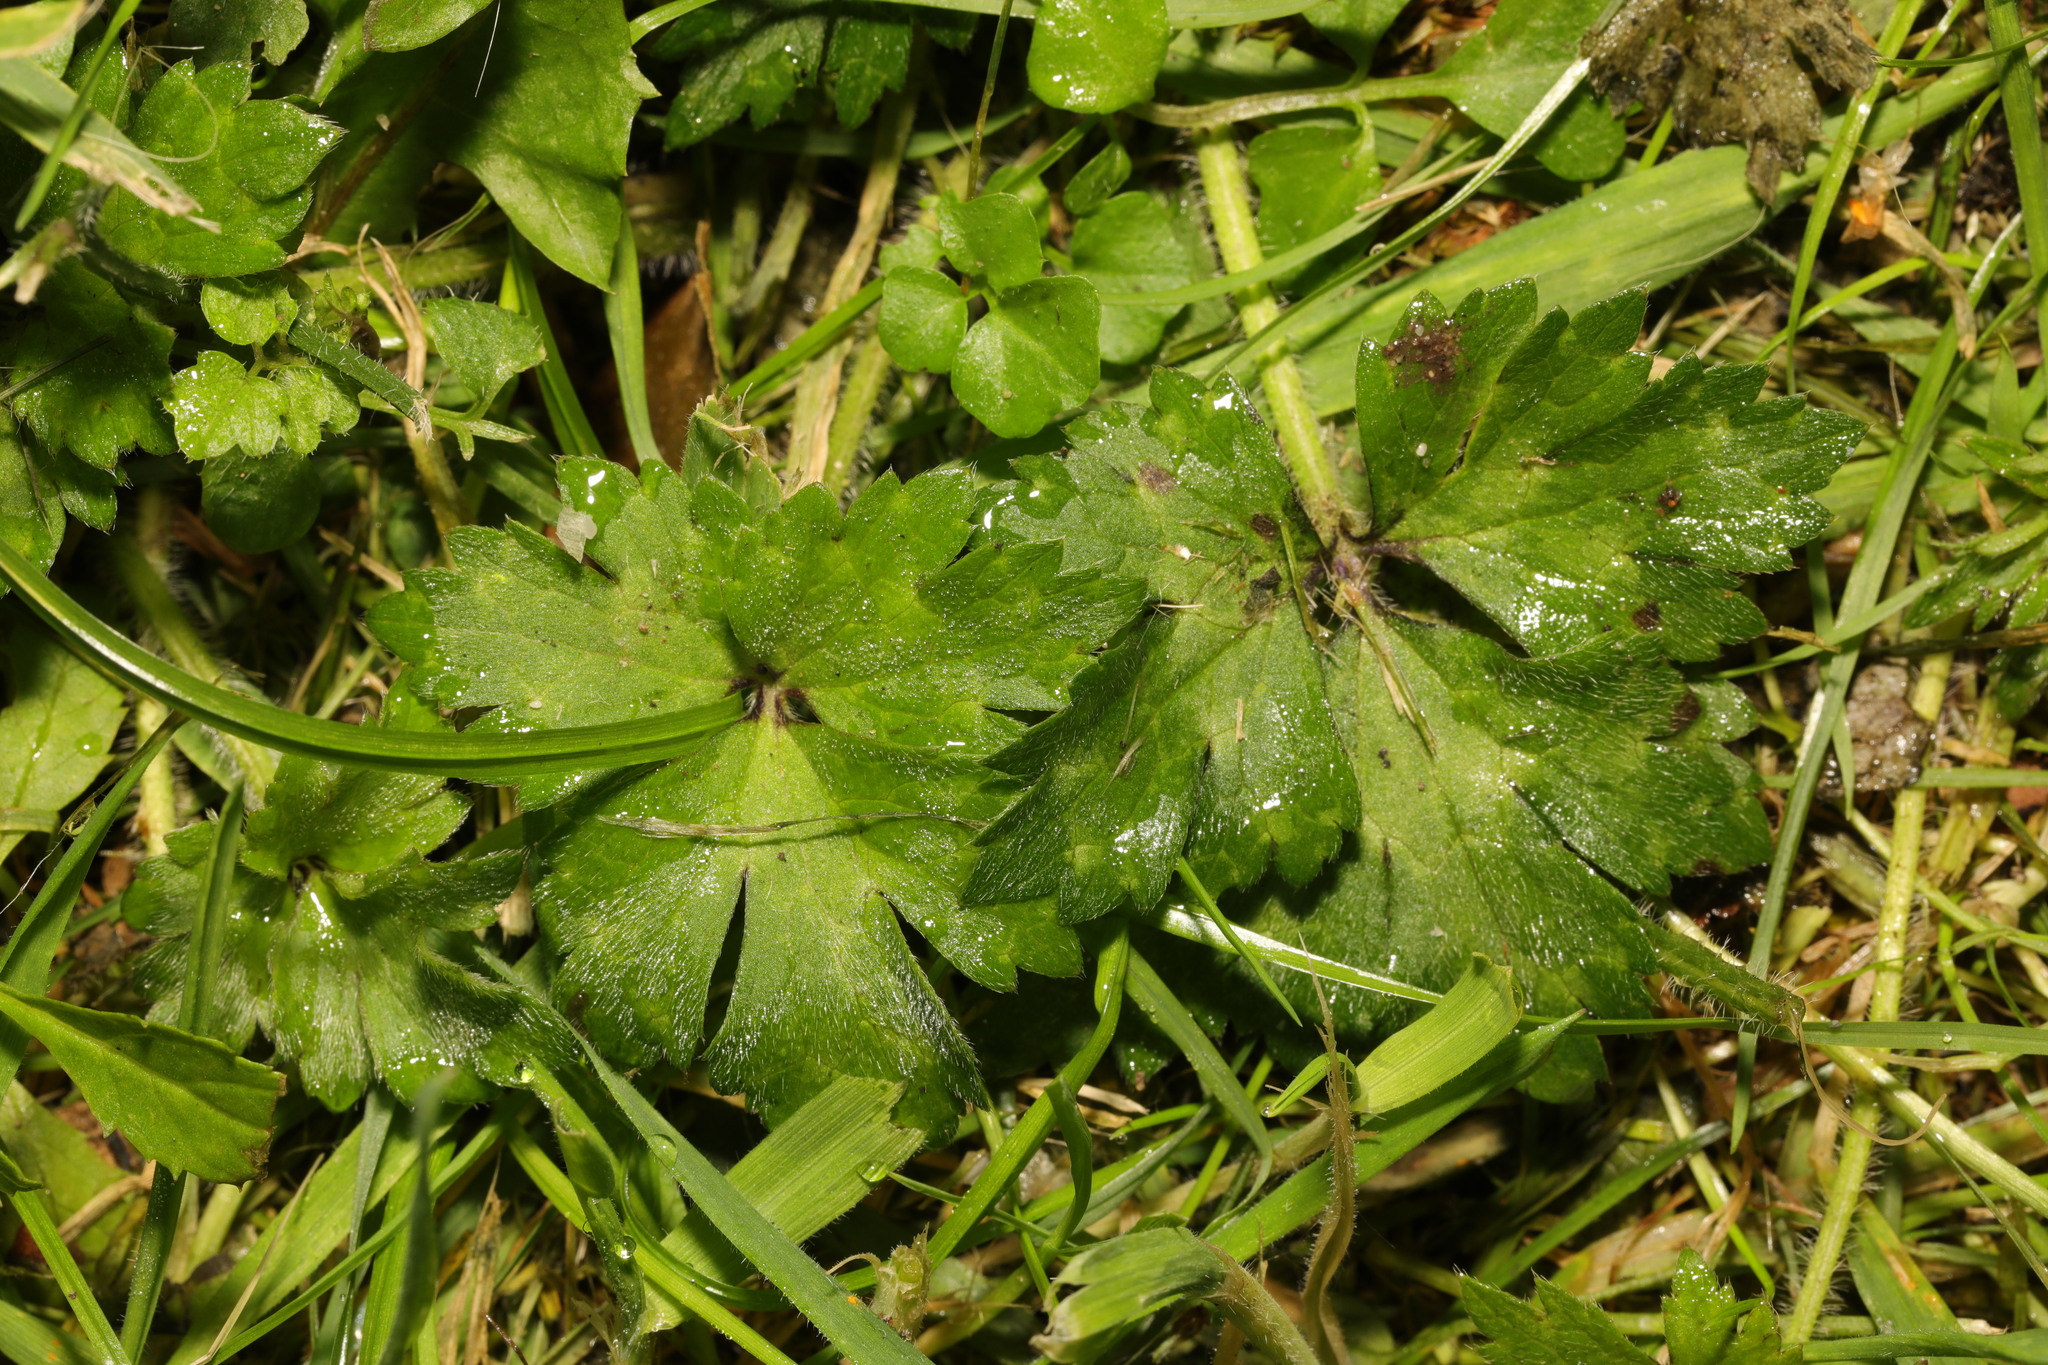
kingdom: Plantae
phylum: Tracheophyta
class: Magnoliopsida
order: Ranunculales
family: Ranunculaceae
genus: Ranunculus
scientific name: Ranunculus repens
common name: Creeping buttercup
